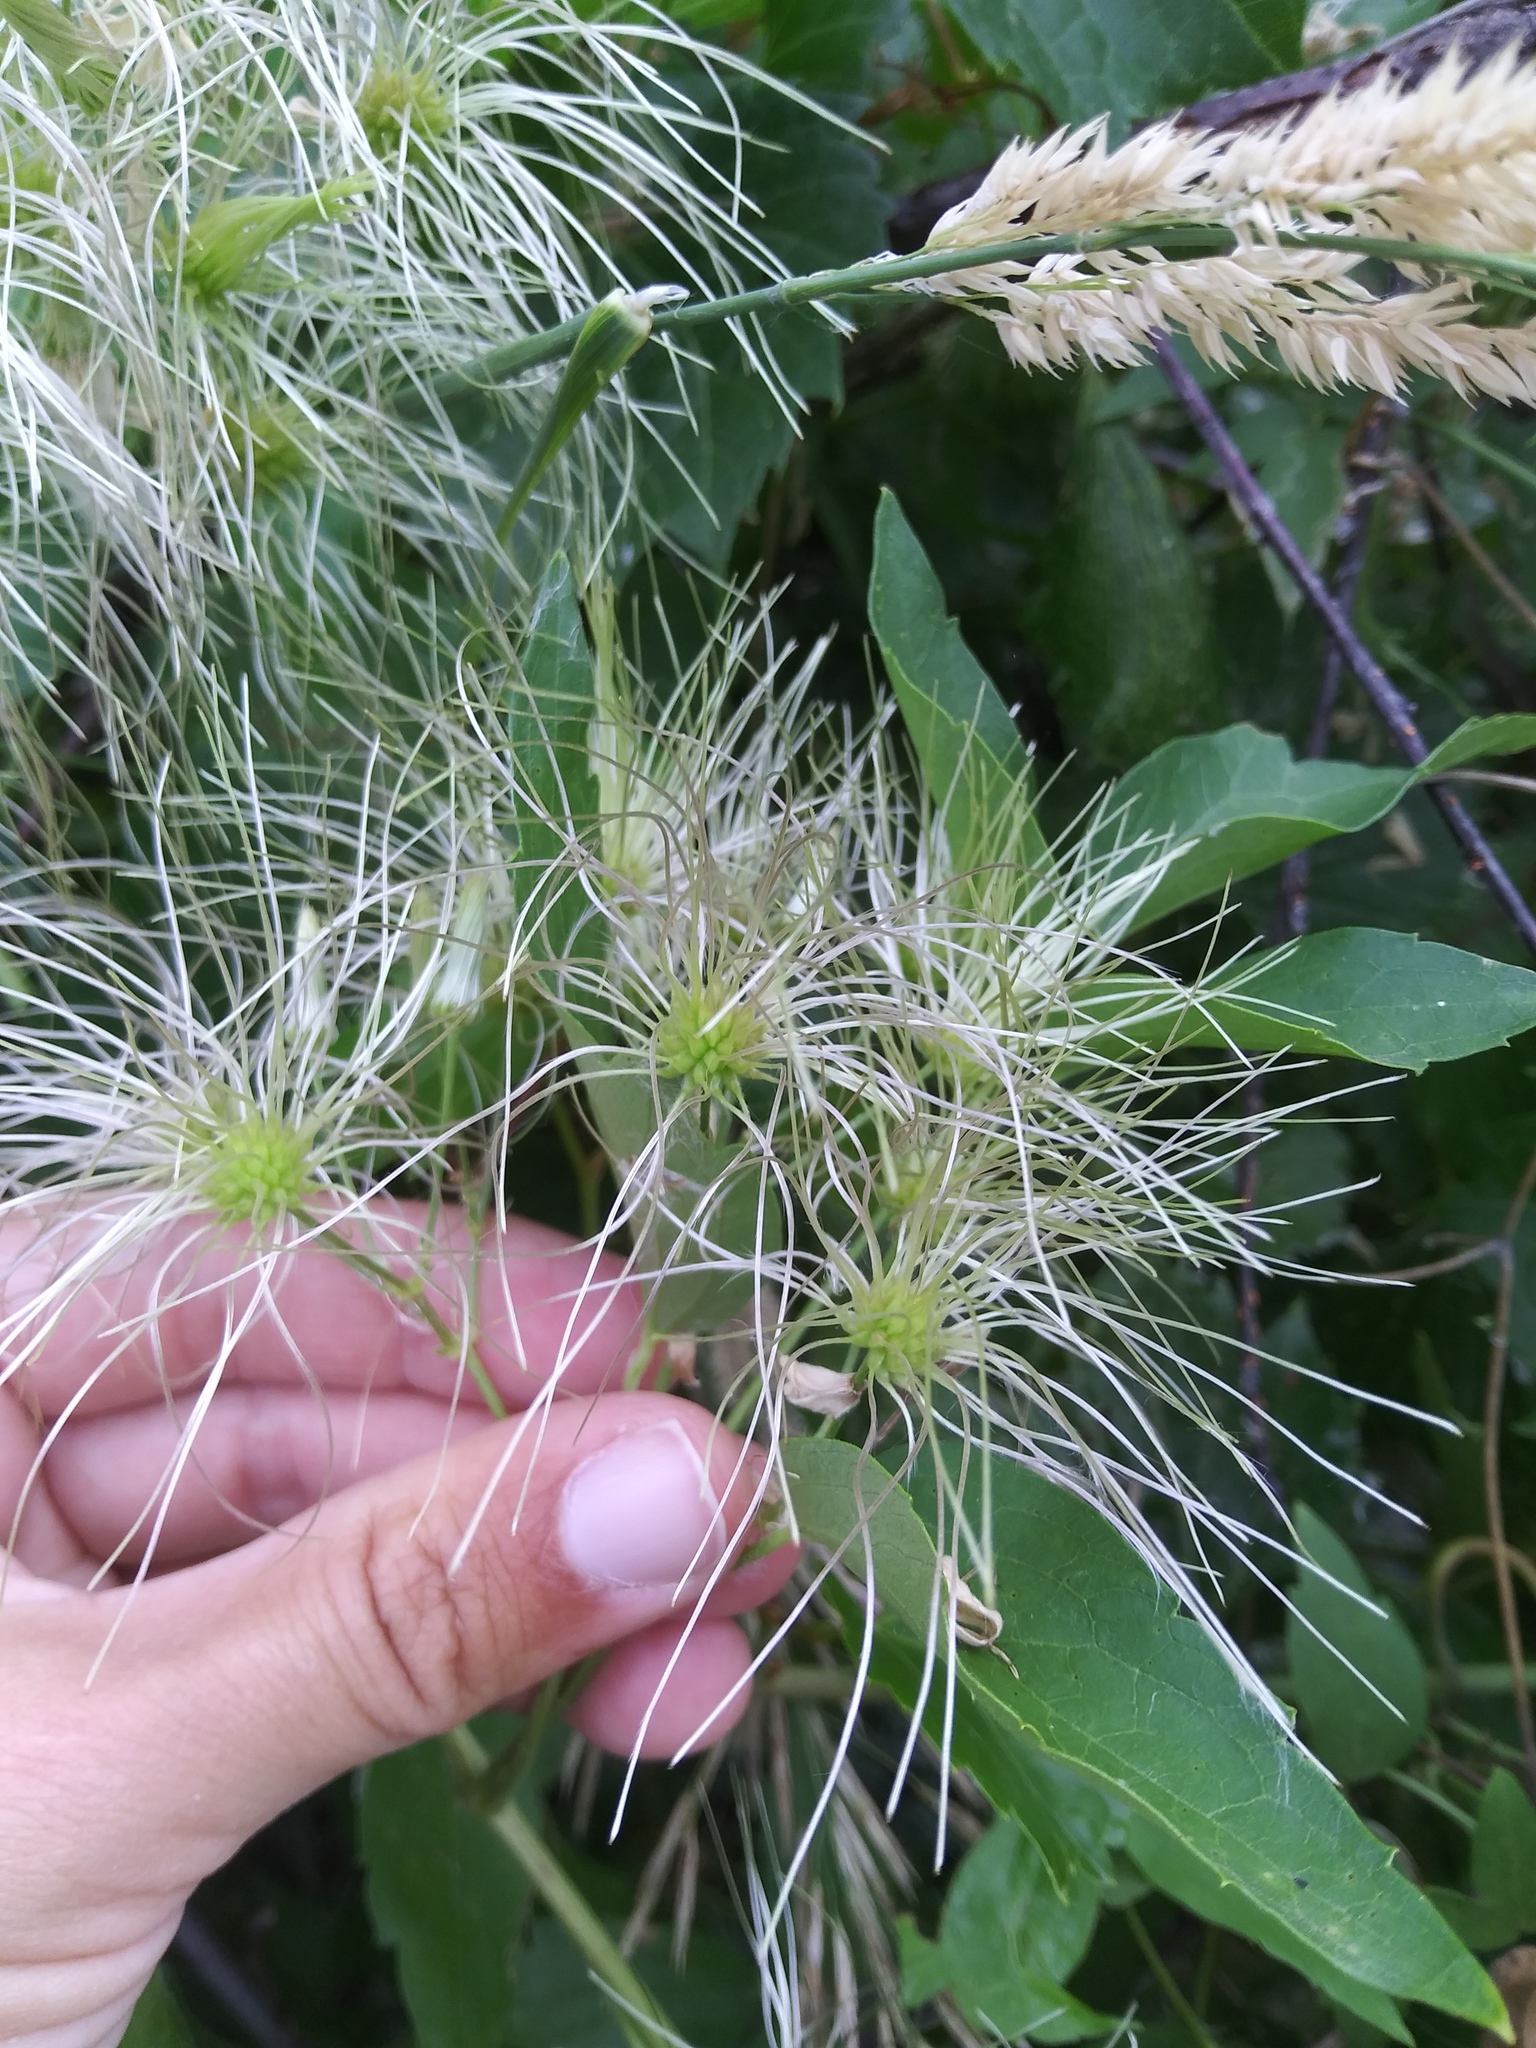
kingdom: Plantae
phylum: Tracheophyta
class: Magnoliopsida
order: Ranunculales
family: Ranunculaceae
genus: Clematis
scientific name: Clematis ligusticifolia
